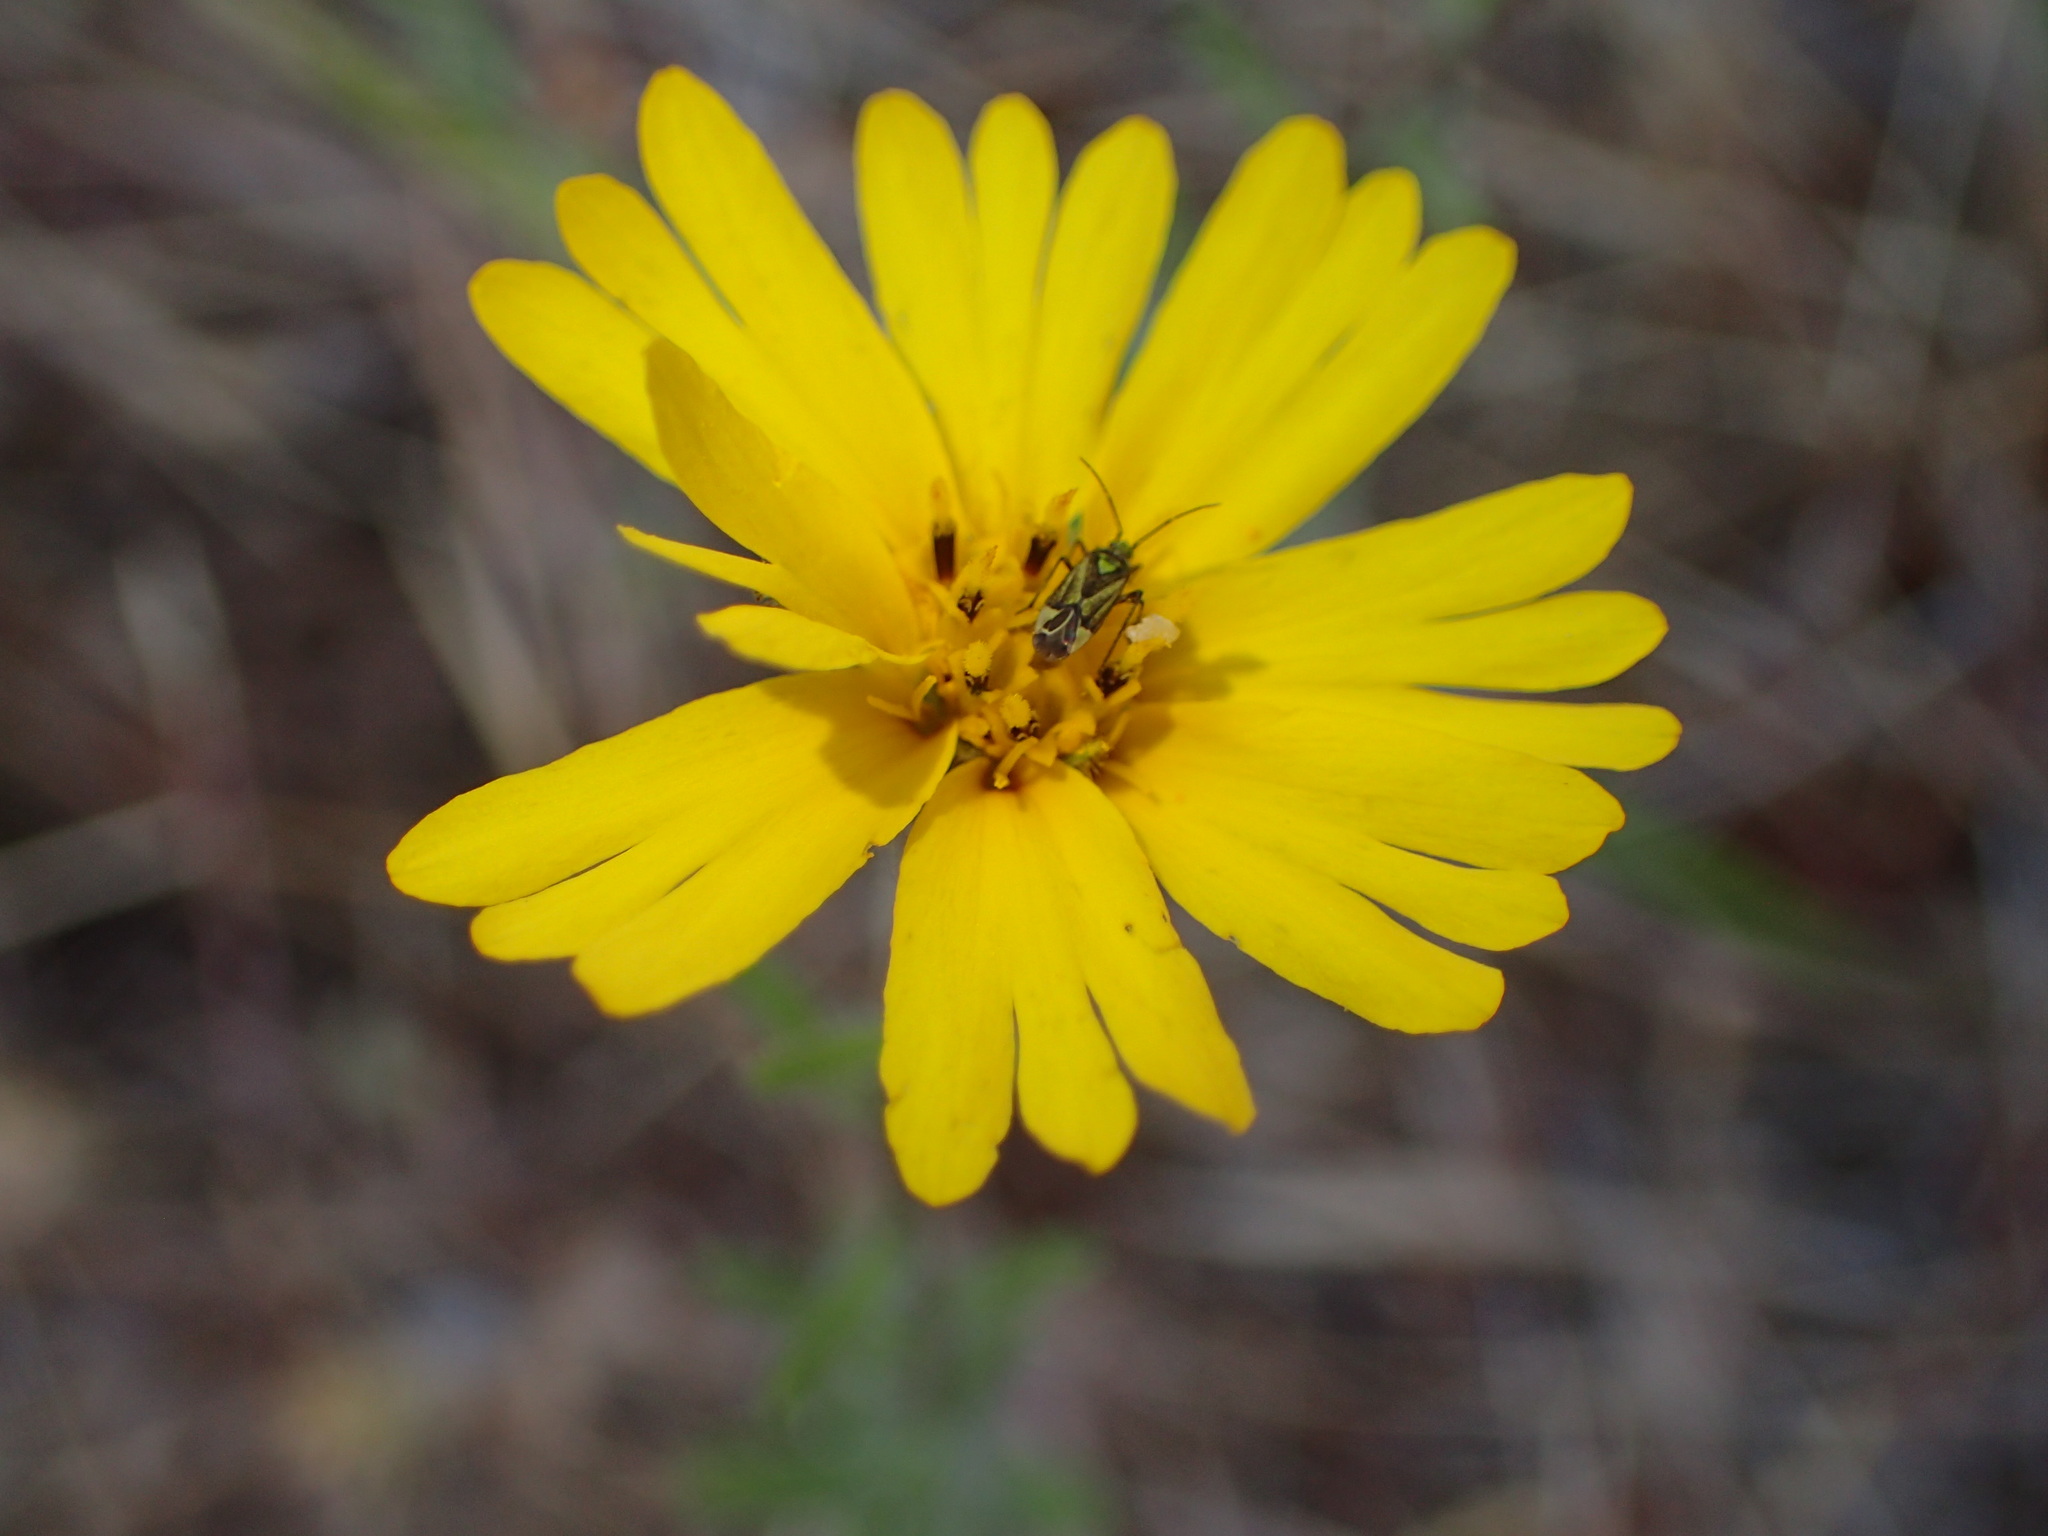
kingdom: Plantae
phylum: Tracheophyta
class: Magnoliopsida
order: Asterales
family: Asteraceae
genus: Madia
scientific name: Madia elegans
